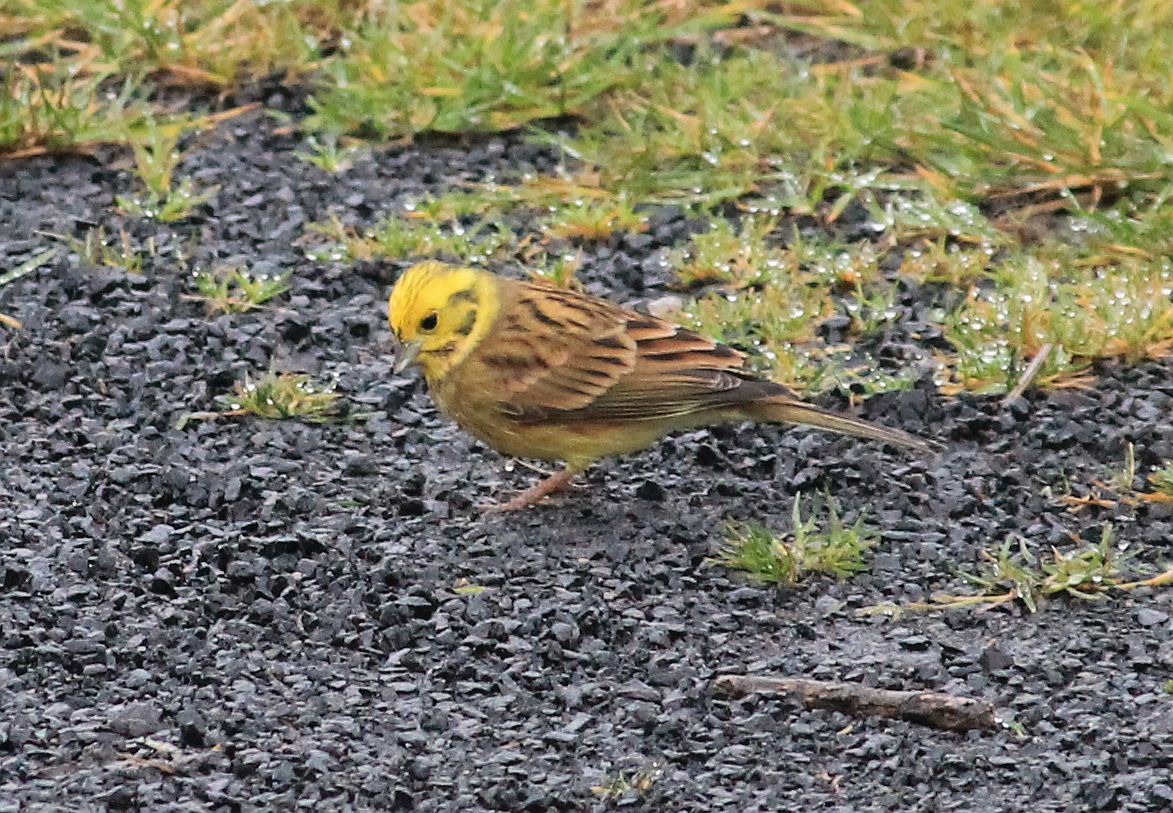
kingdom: Animalia
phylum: Chordata
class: Aves
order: Passeriformes
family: Emberizidae
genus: Emberiza
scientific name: Emberiza citrinella
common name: Yellowhammer
